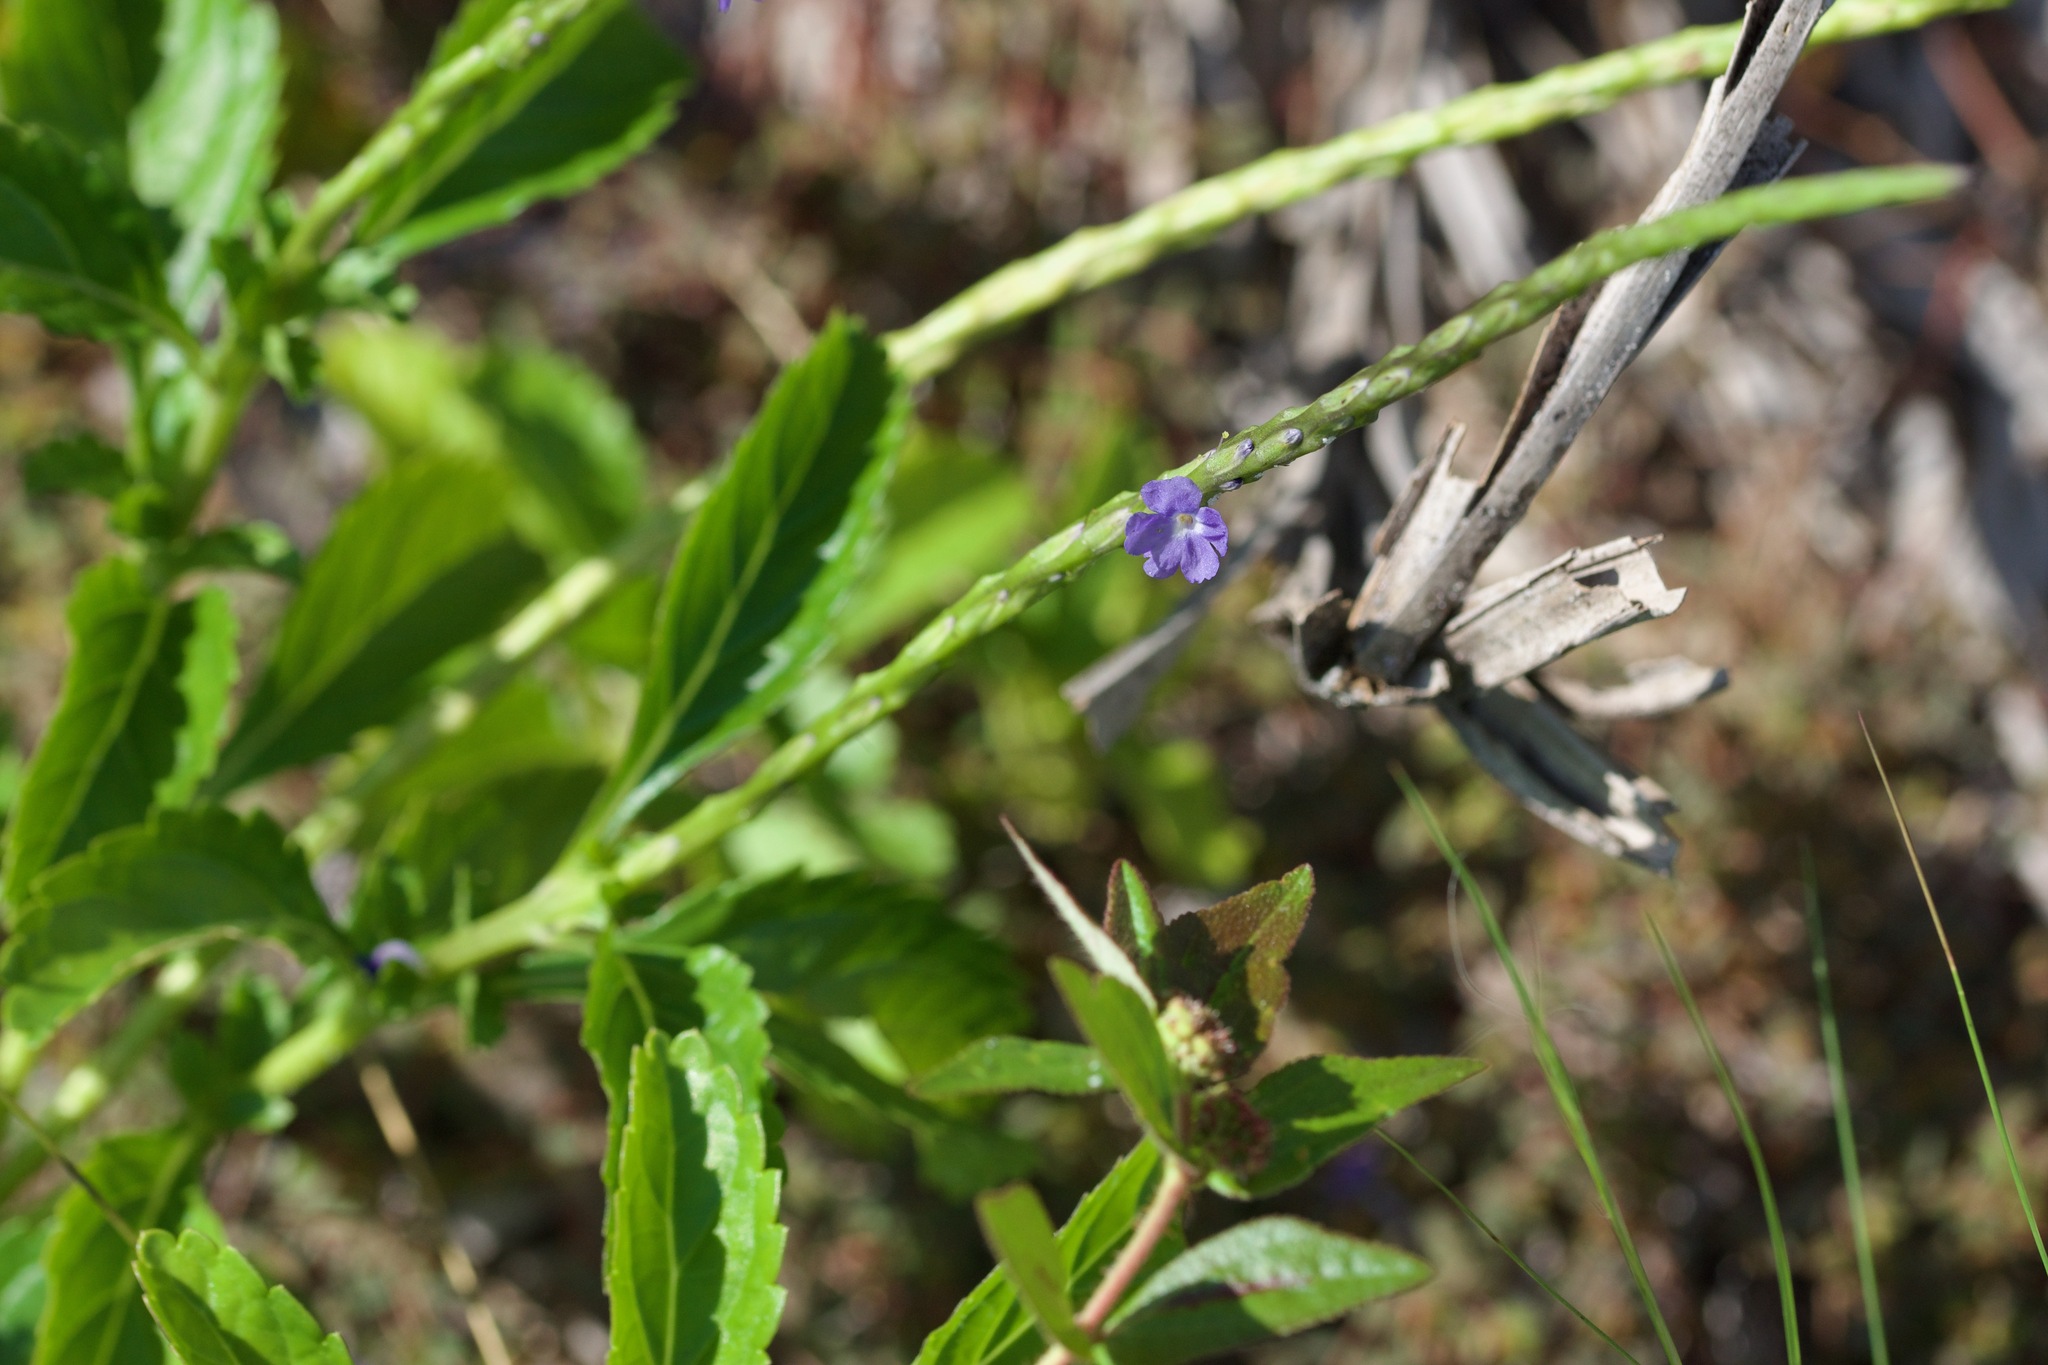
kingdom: Plantae
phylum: Tracheophyta
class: Magnoliopsida
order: Lamiales
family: Verbenaceae
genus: Stachytarpheta
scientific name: Stachytarpheta jamaicensis
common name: Light-blue snakeweed
